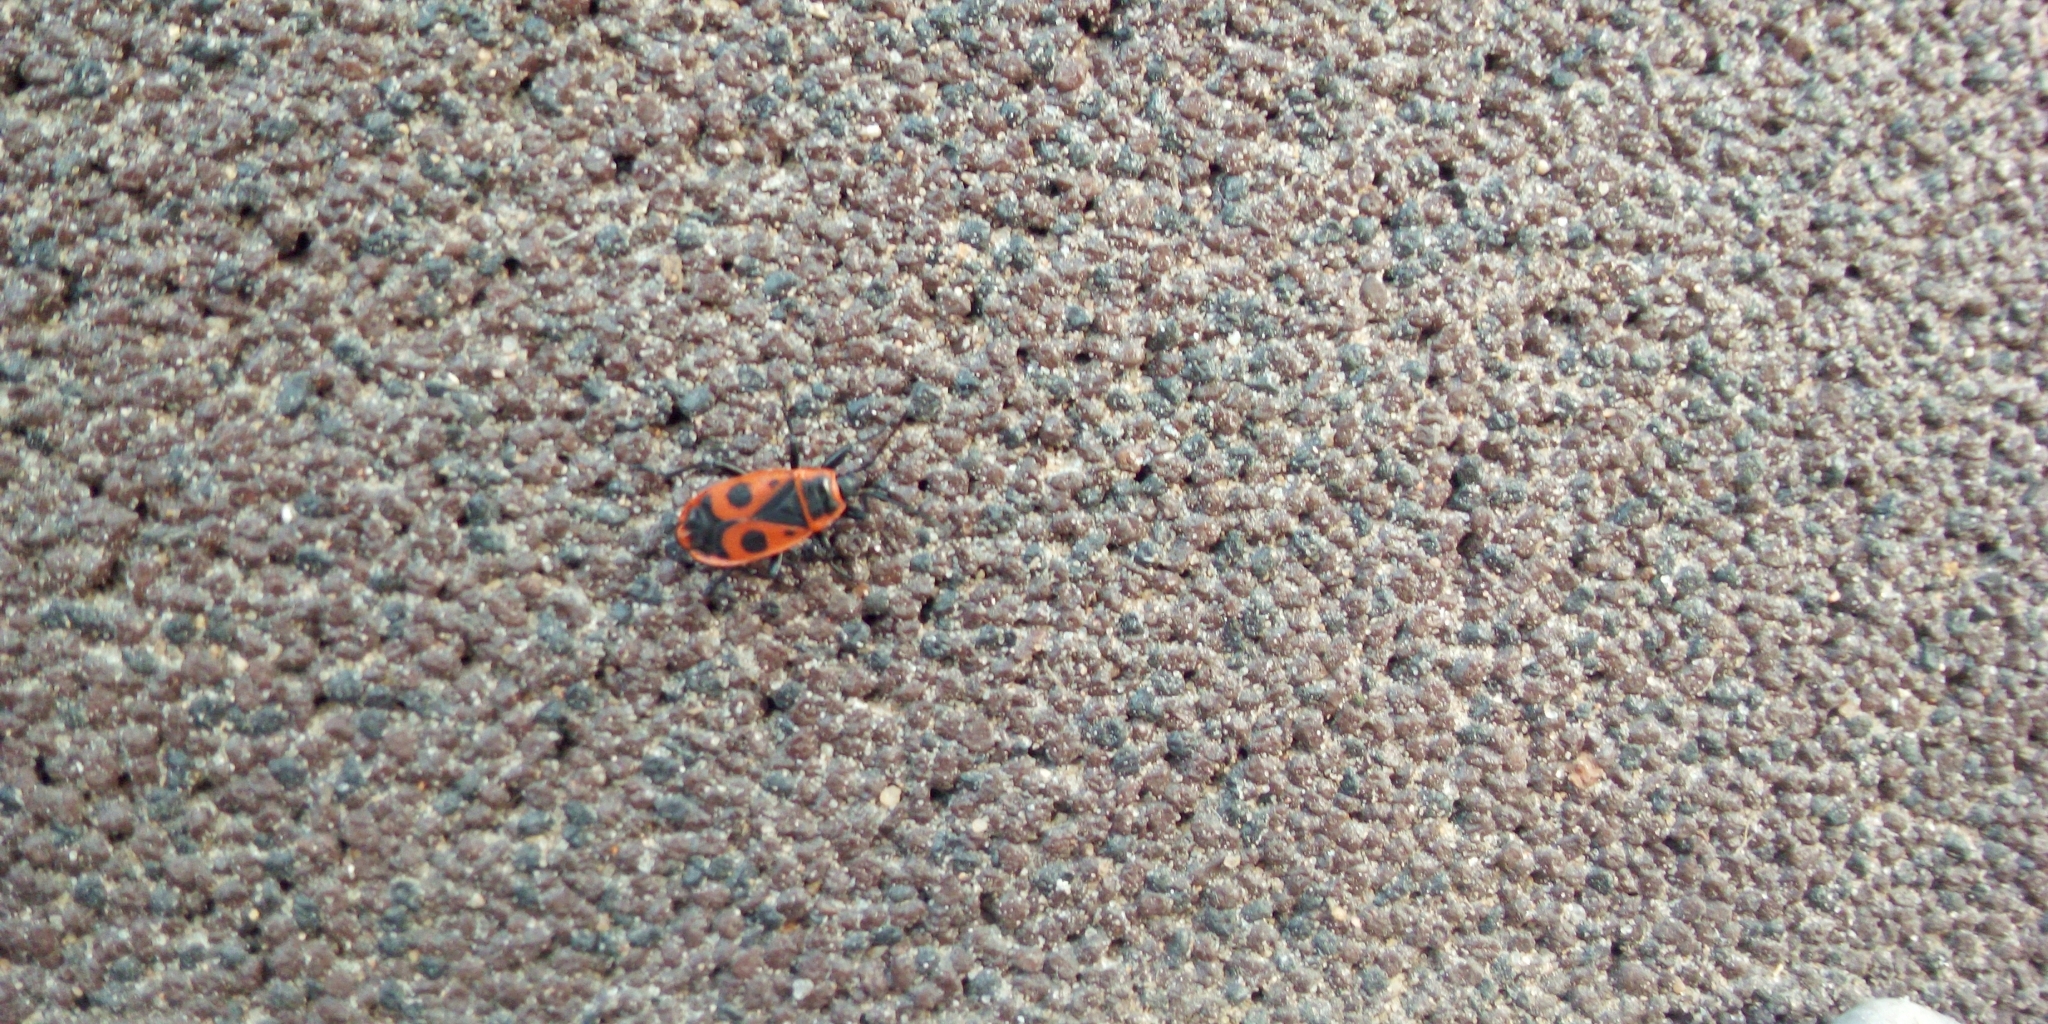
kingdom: Animalia
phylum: Arthropoda
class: Insecta
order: Hemiptera
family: Pyrrhocoridae
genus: Pyrrhocoris
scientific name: Pyrrhocoris apterus
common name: Firebug
